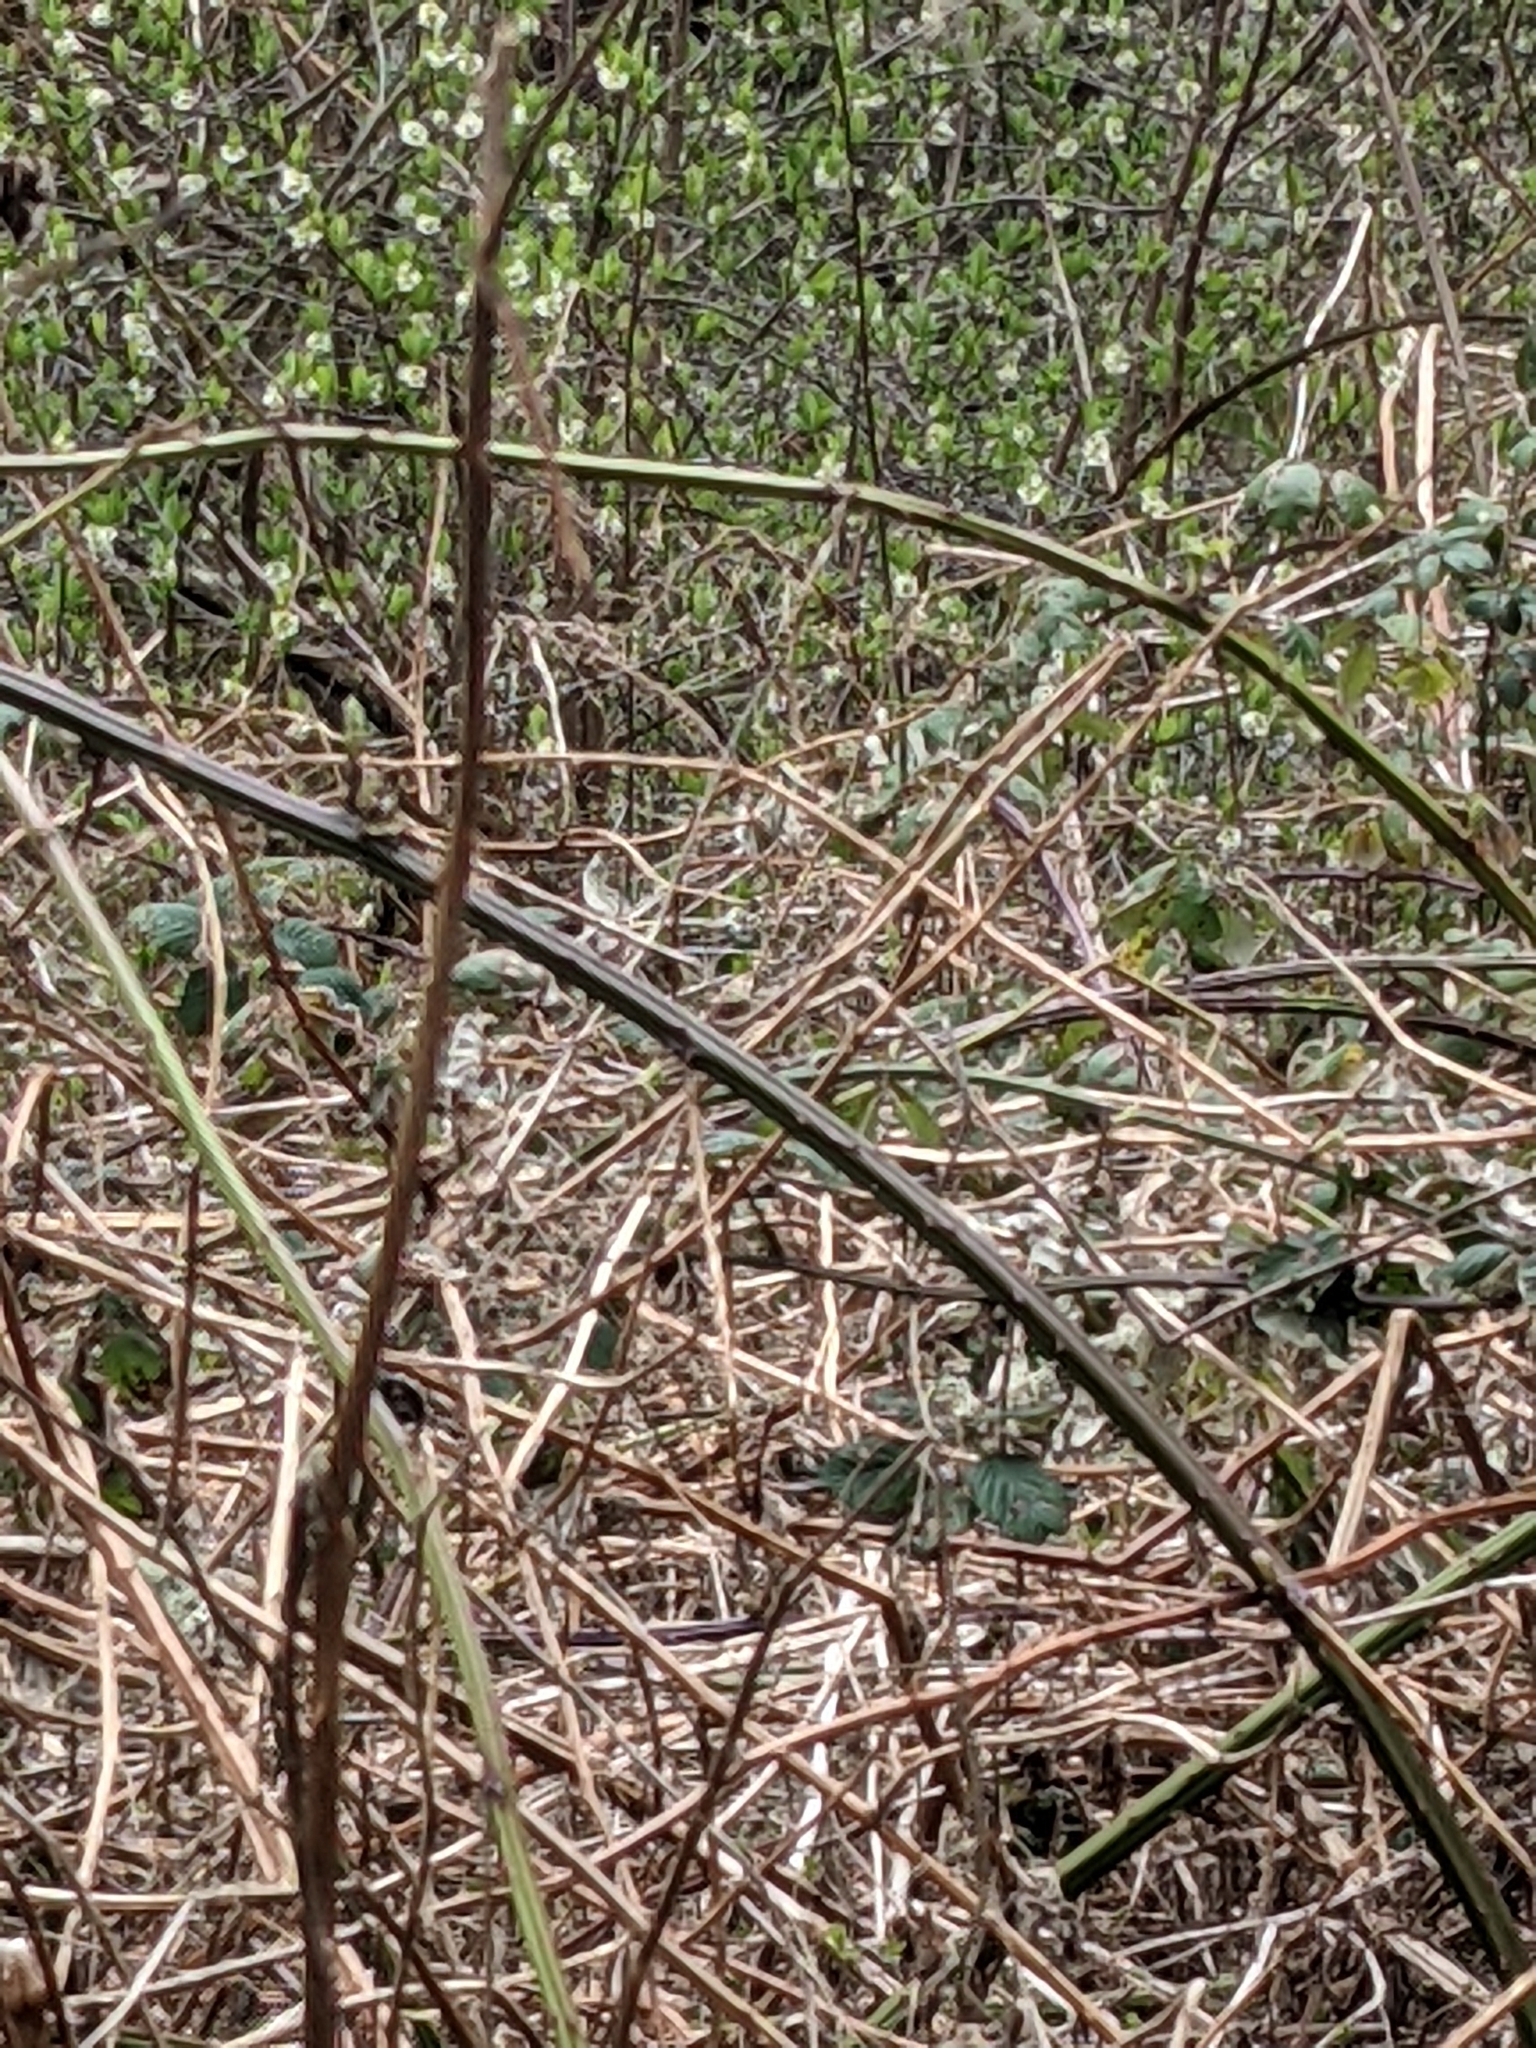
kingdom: Animalia
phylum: Chordata
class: Aves
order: Passeriformes
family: Paridae
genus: Poecile
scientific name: Poecile rufescens
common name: Chestnut-backed chickadee
